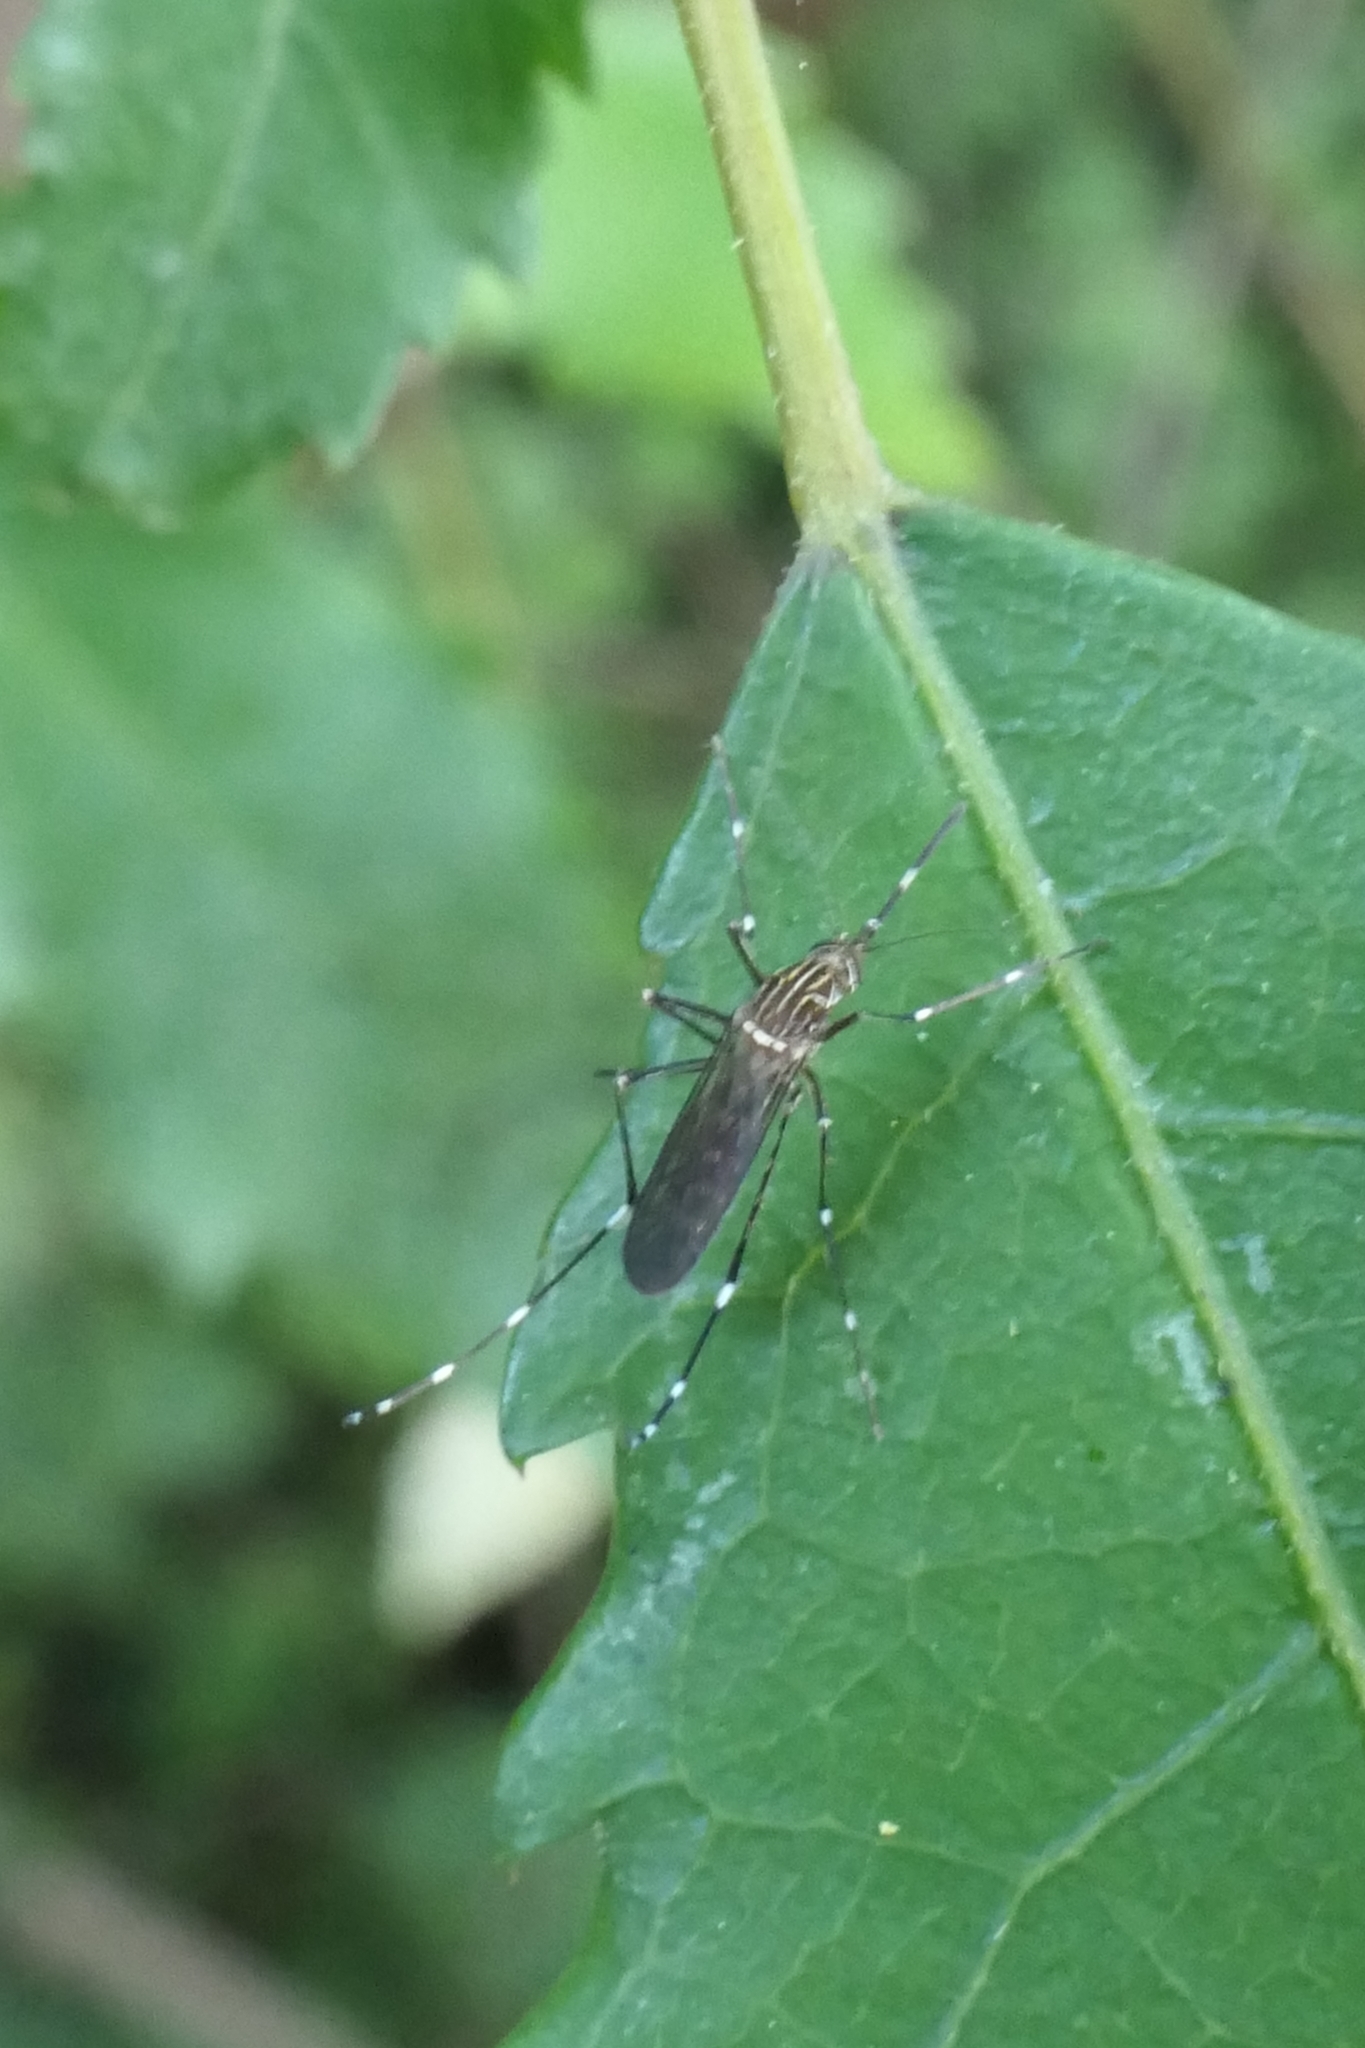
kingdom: Animalia
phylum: Arthropoda
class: Insecta
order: Diptera
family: Culicidae
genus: Aedes
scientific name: Aedes notoscriptus
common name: Australian backyard mosquito
